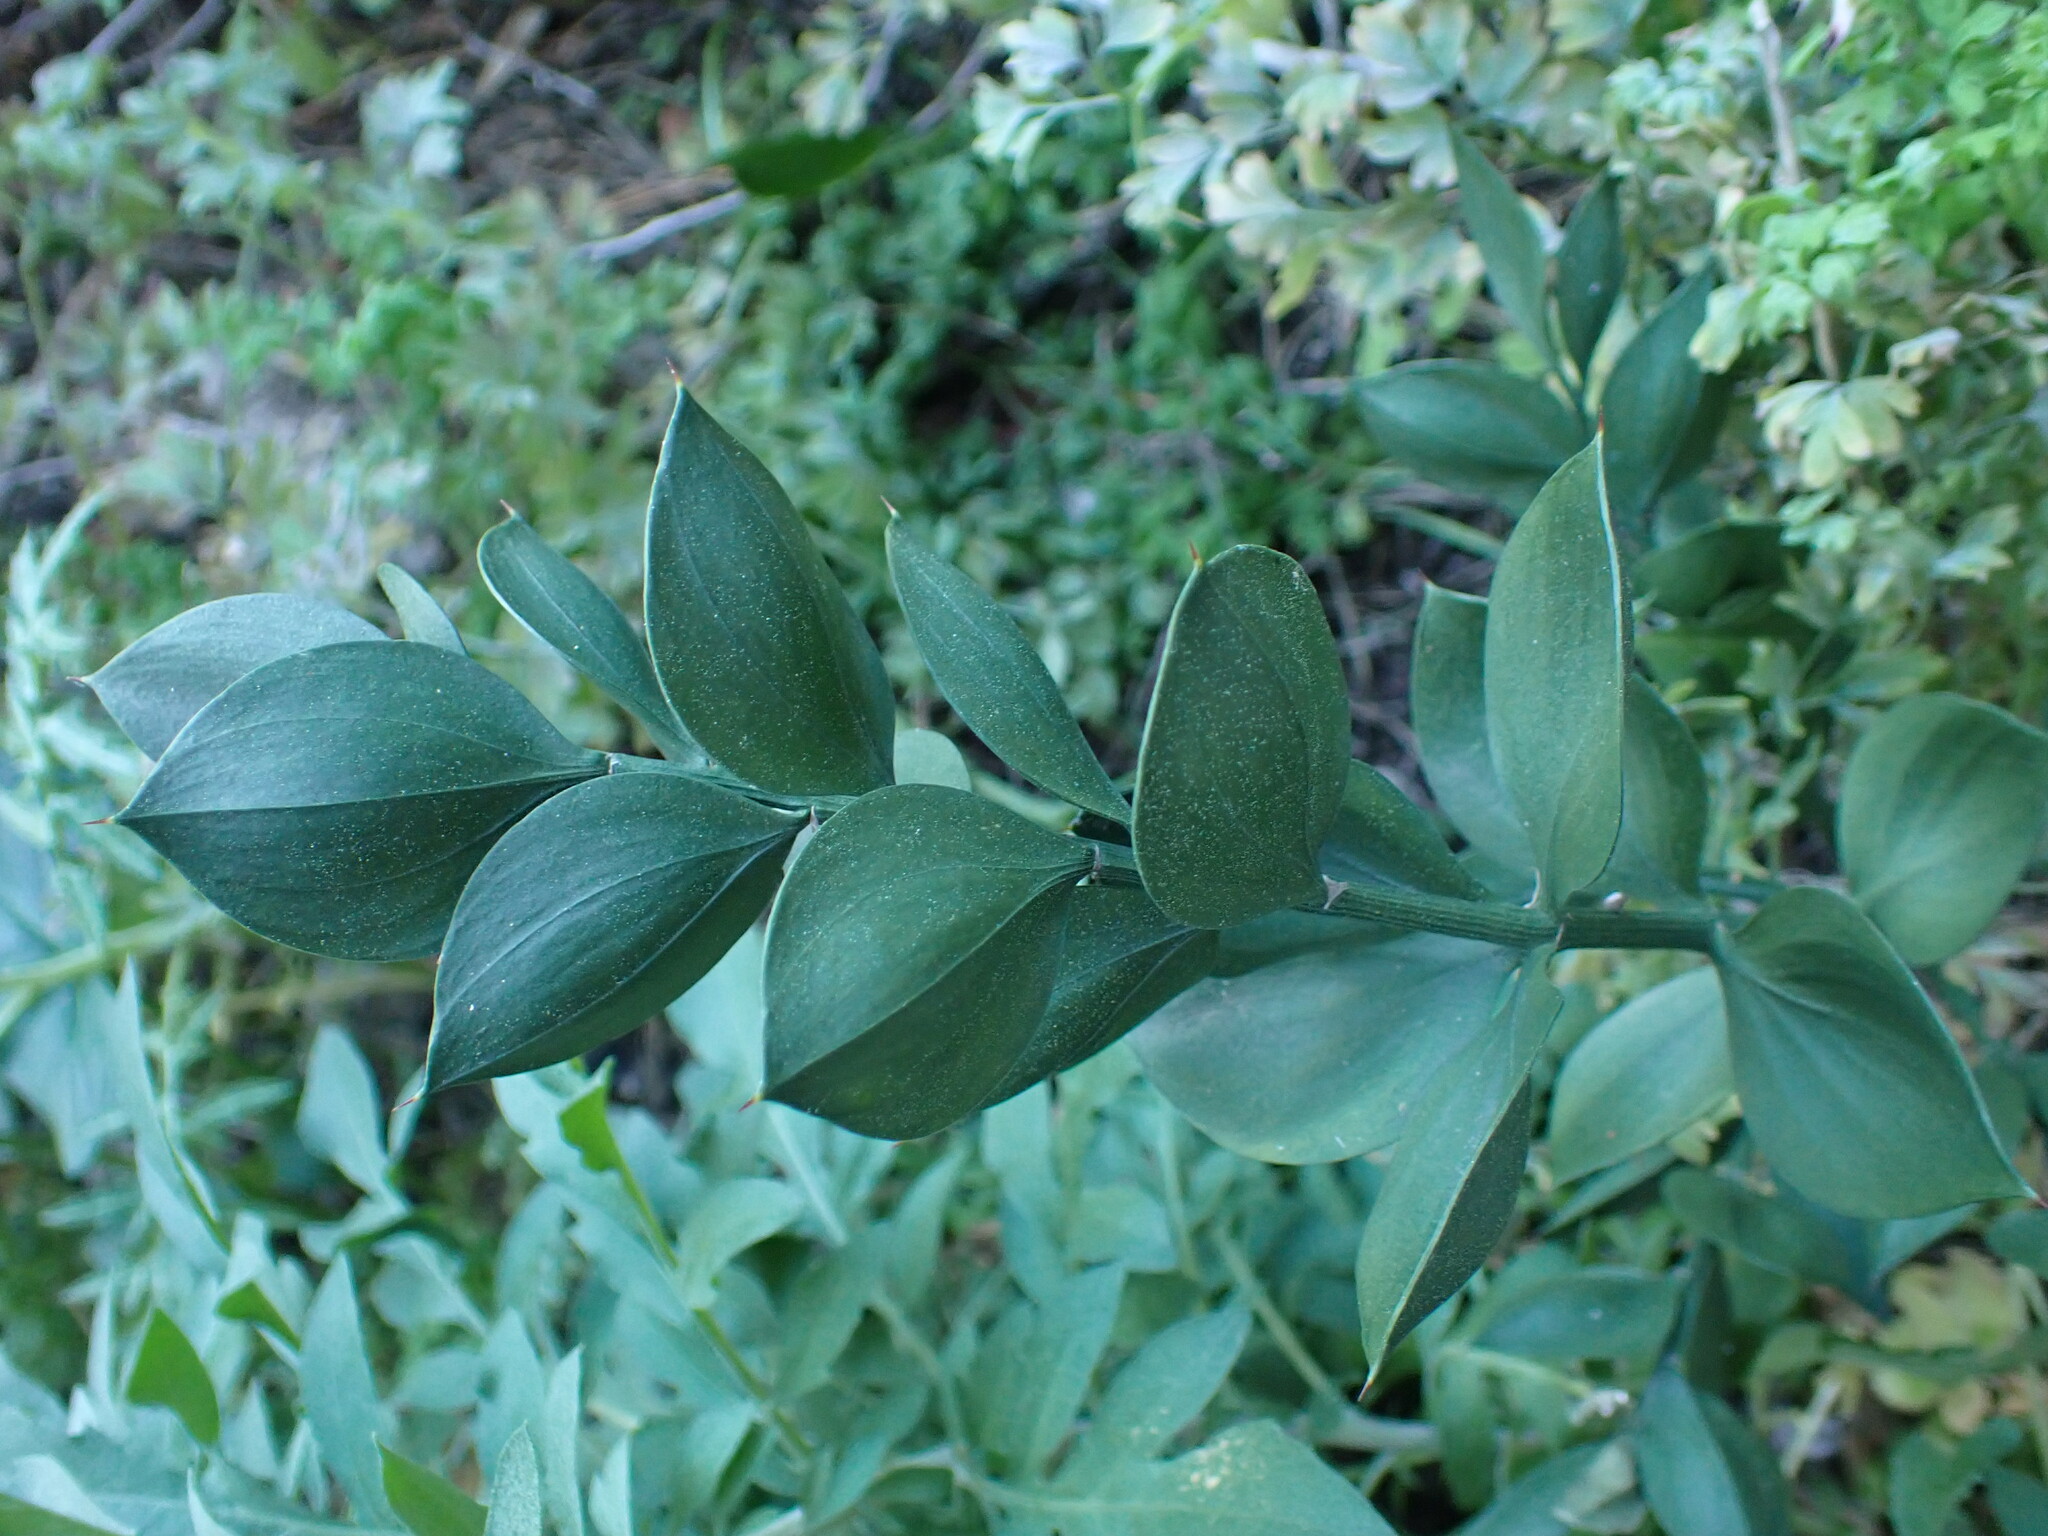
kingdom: Plantae
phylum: Tracheophyta
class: Liliopsida
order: Asparagales
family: Asparagaceae
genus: Ruscus
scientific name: Ruscus aculeatus
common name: Butcher's-broom
